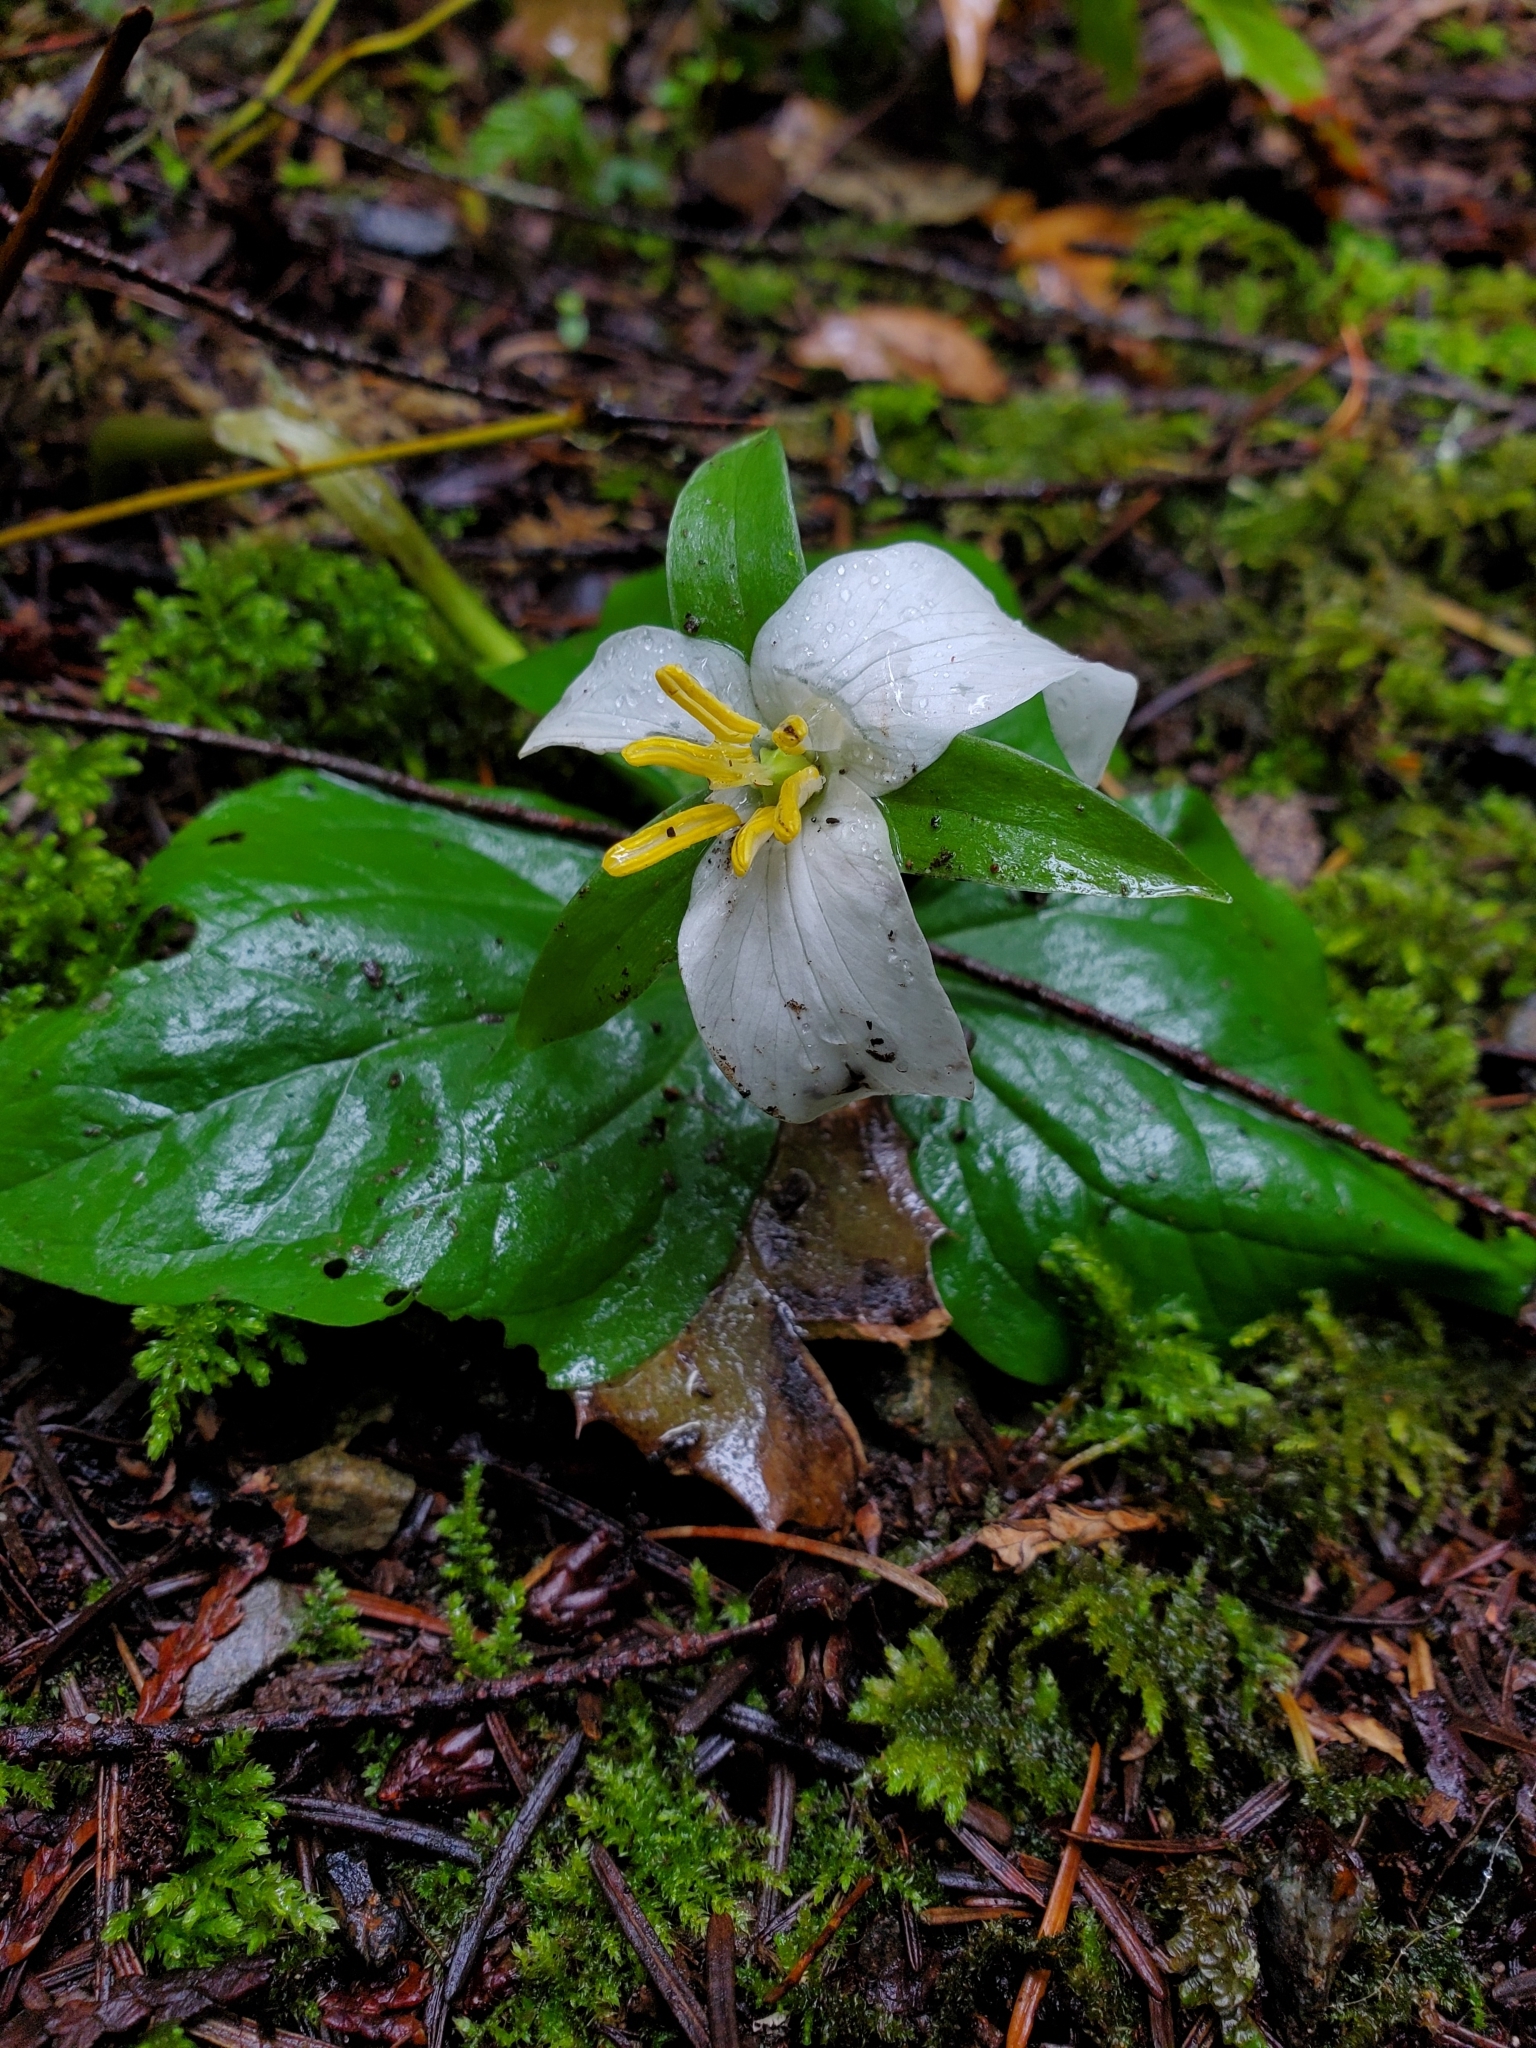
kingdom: Plantae
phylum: Tracheophyta
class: Liliopsida
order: Liliales
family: Melanthiaceae
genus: Trillium
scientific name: Trillium ovatum
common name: Pacific trillium
